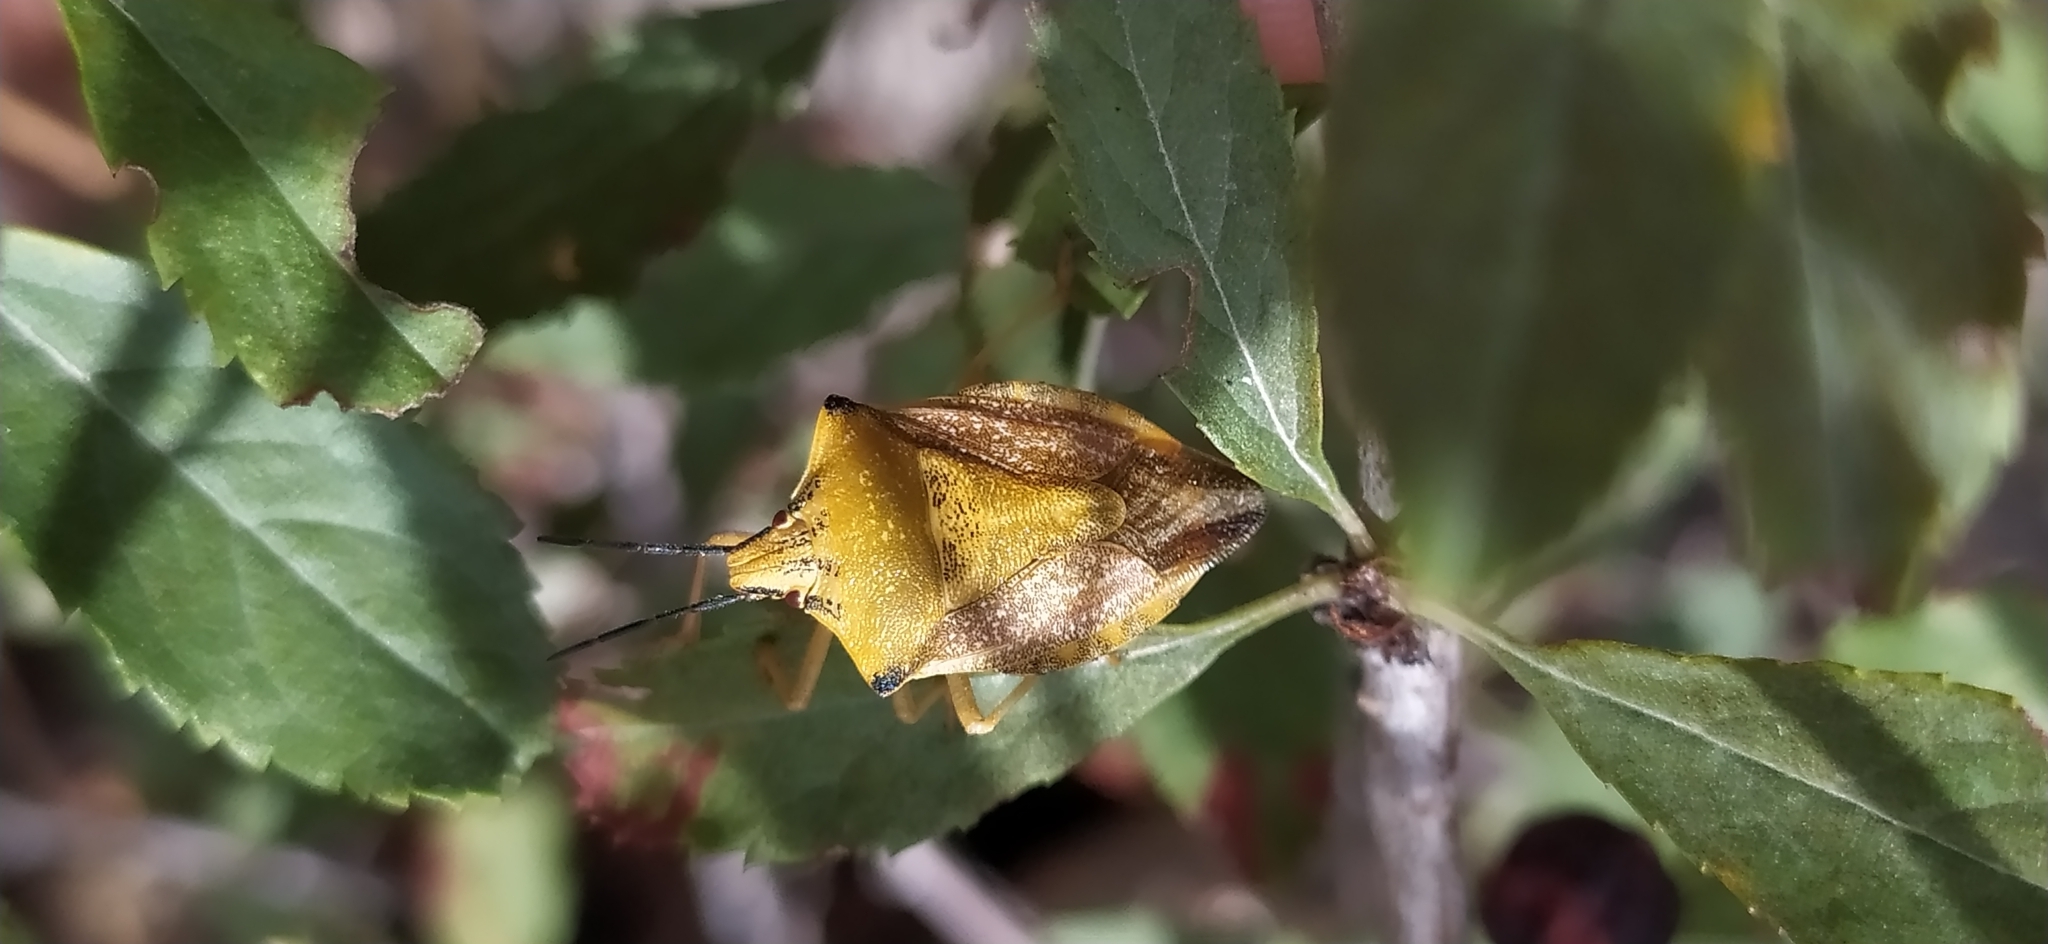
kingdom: Animalia
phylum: Arthropoda
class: Insecta
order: Hemiptera
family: Pentatomidae
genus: Carpocoris
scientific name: Carpocoris coreanus
